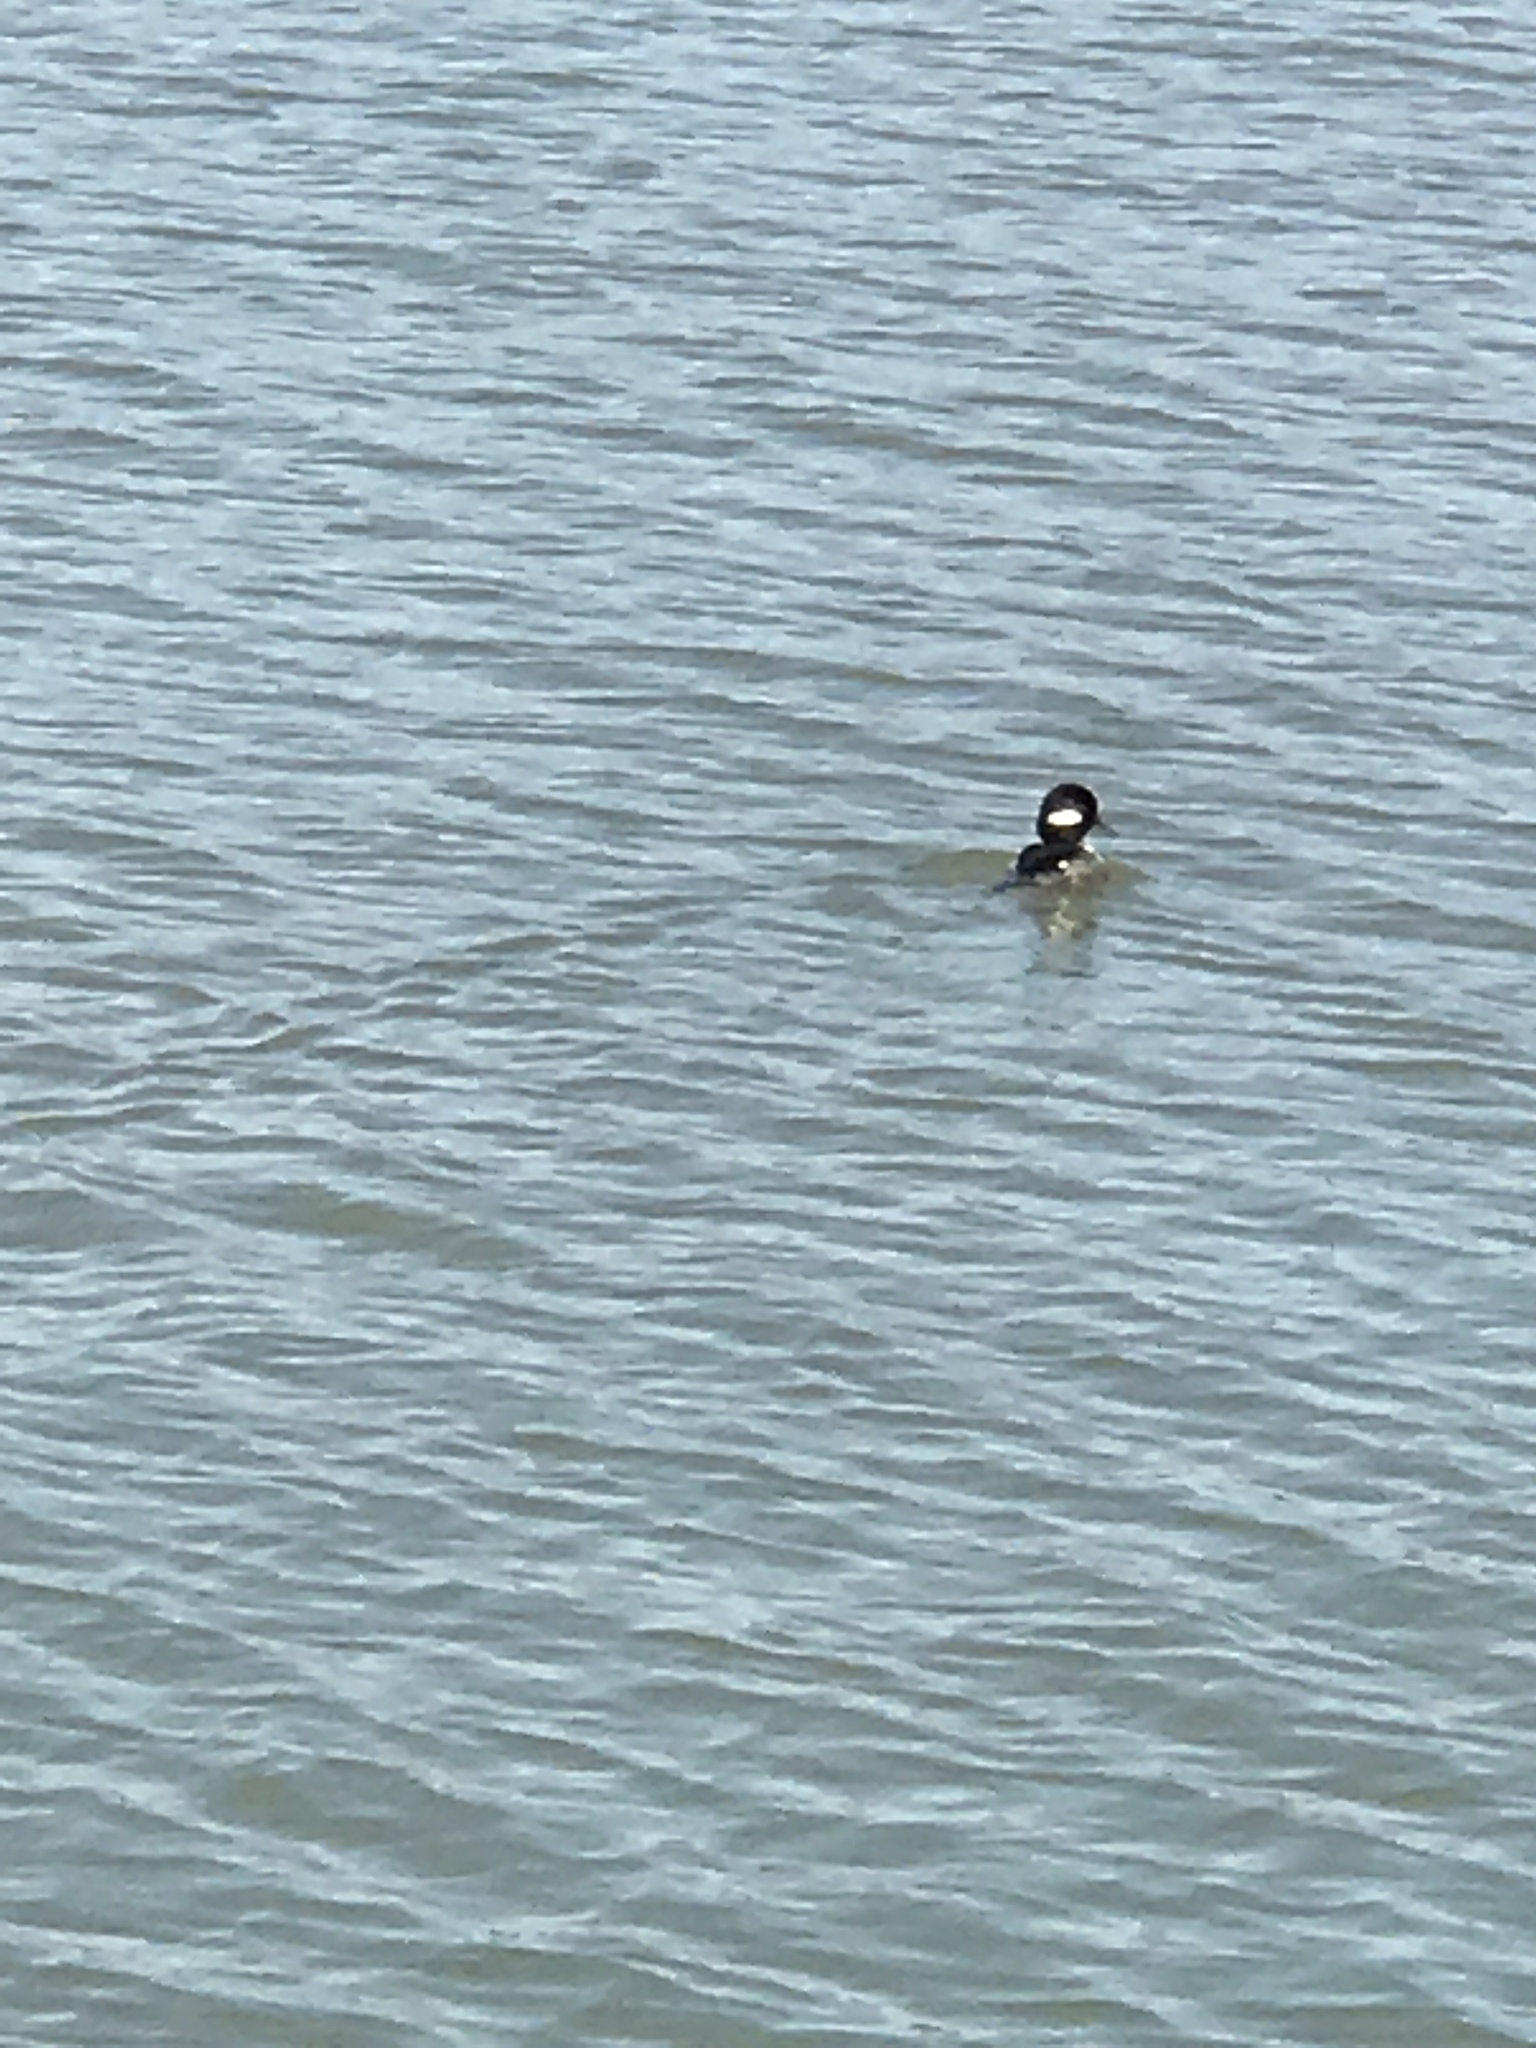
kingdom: Animalia
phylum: Chordata
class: Aves
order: Anseriformes
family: Anatidae
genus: Bucephala
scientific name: Bucephala albeola
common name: Bufflehead
